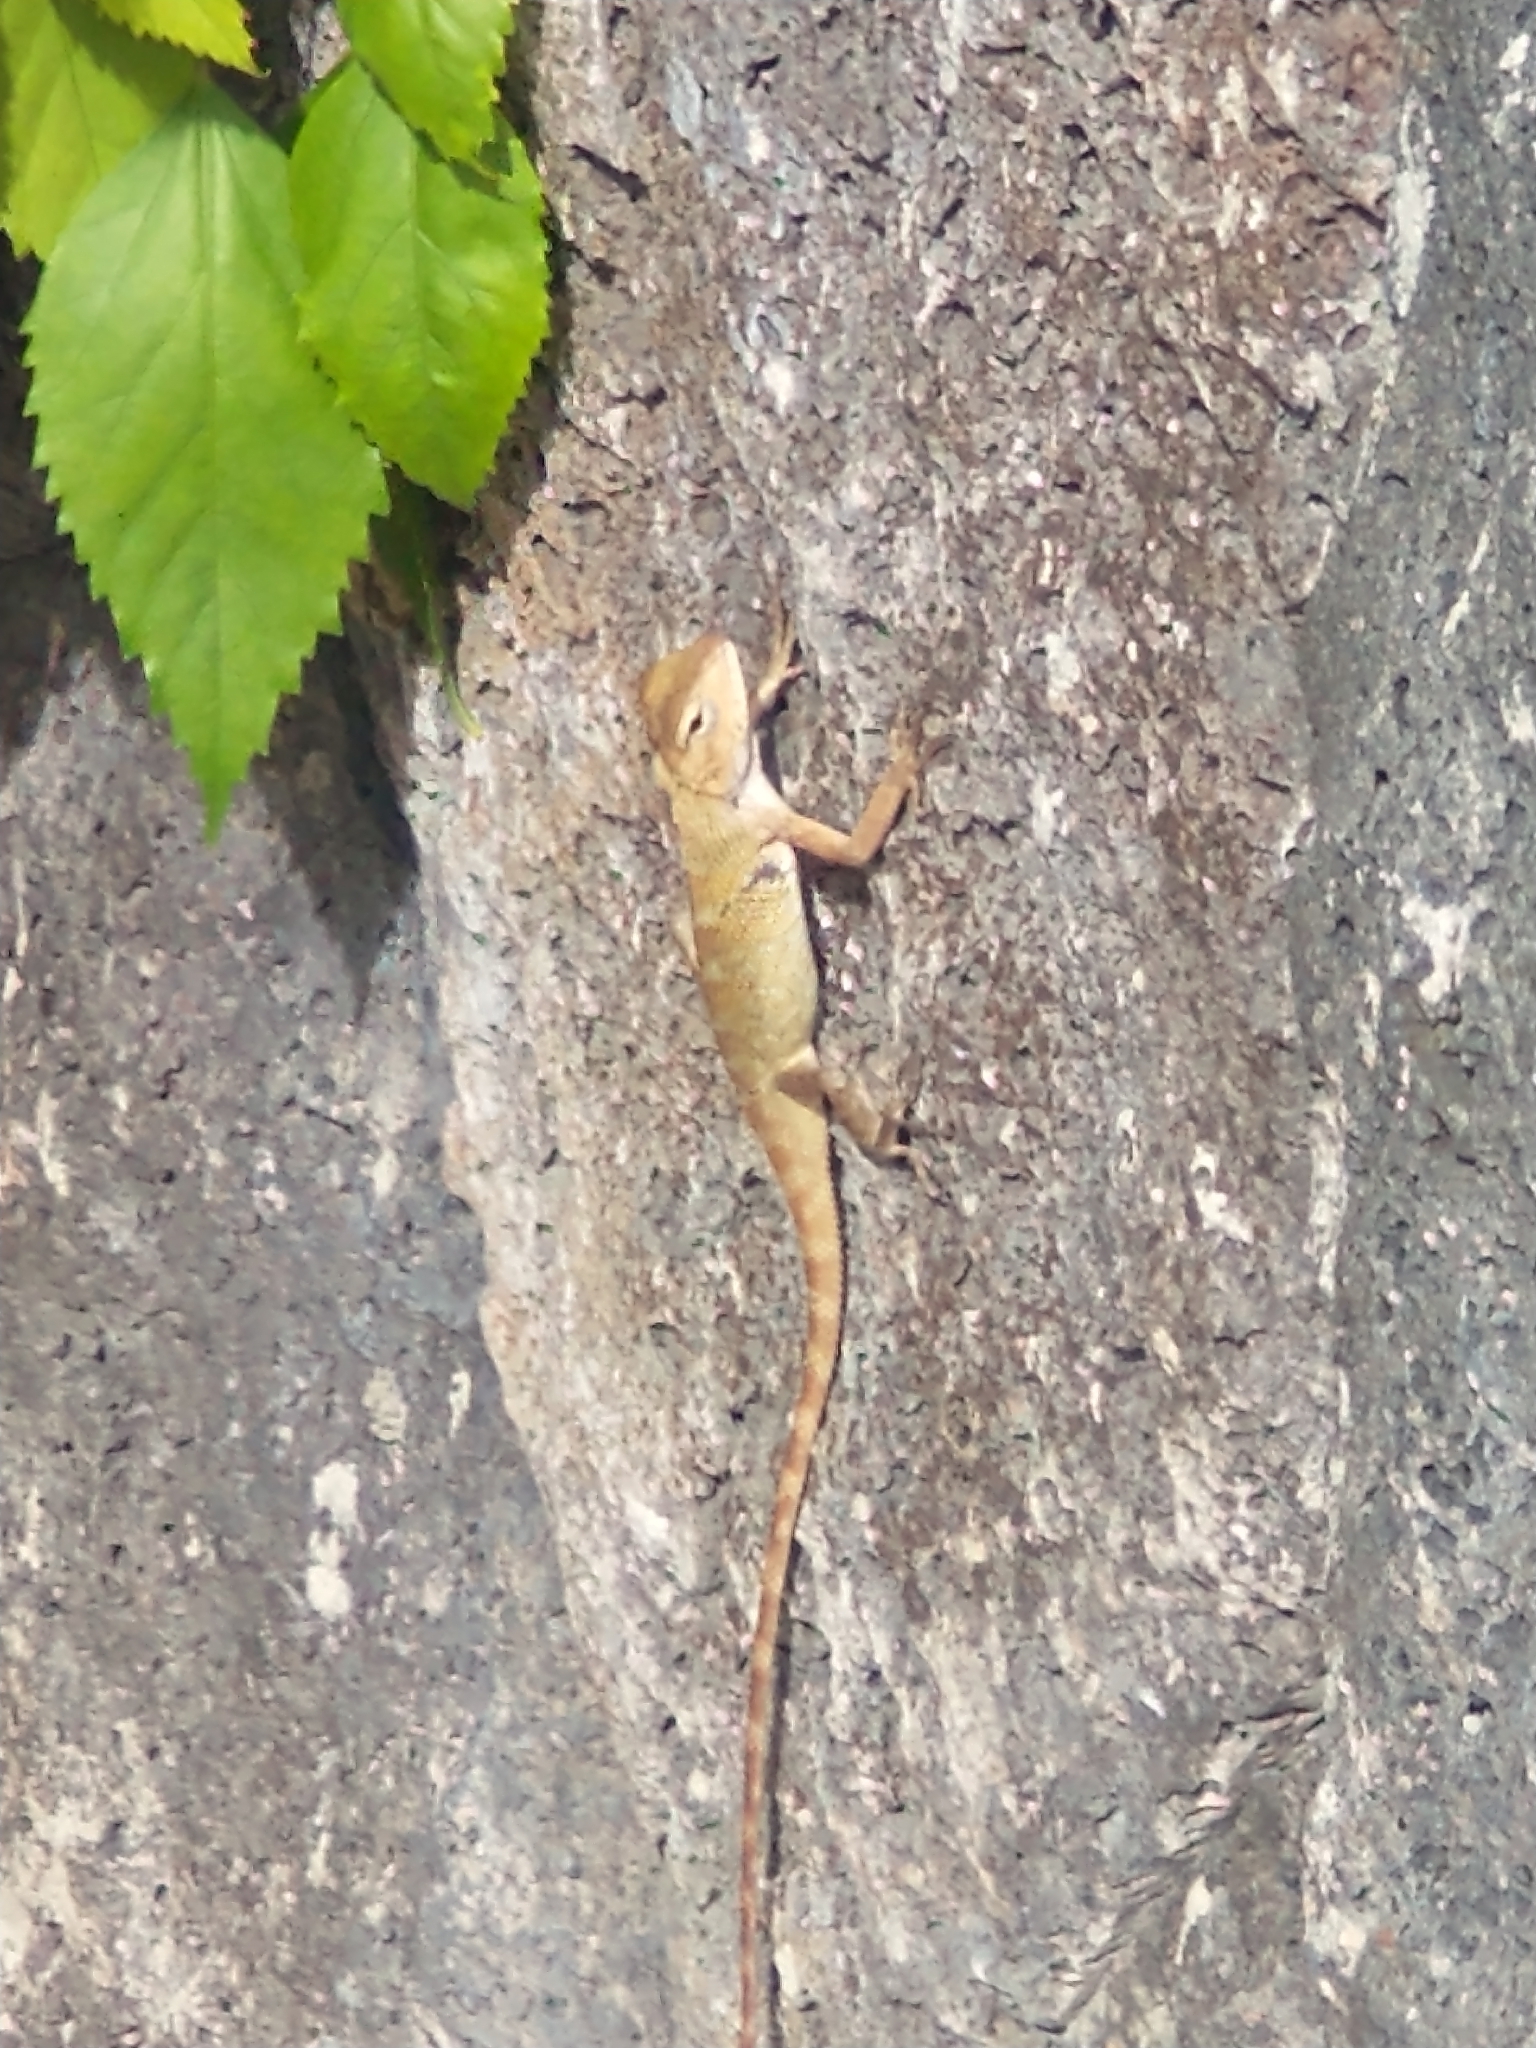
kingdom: Animalia
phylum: Chordata
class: Squamata
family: Agamidae
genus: Calotes
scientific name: Calotes versicolor
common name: Oriental garden lizard
